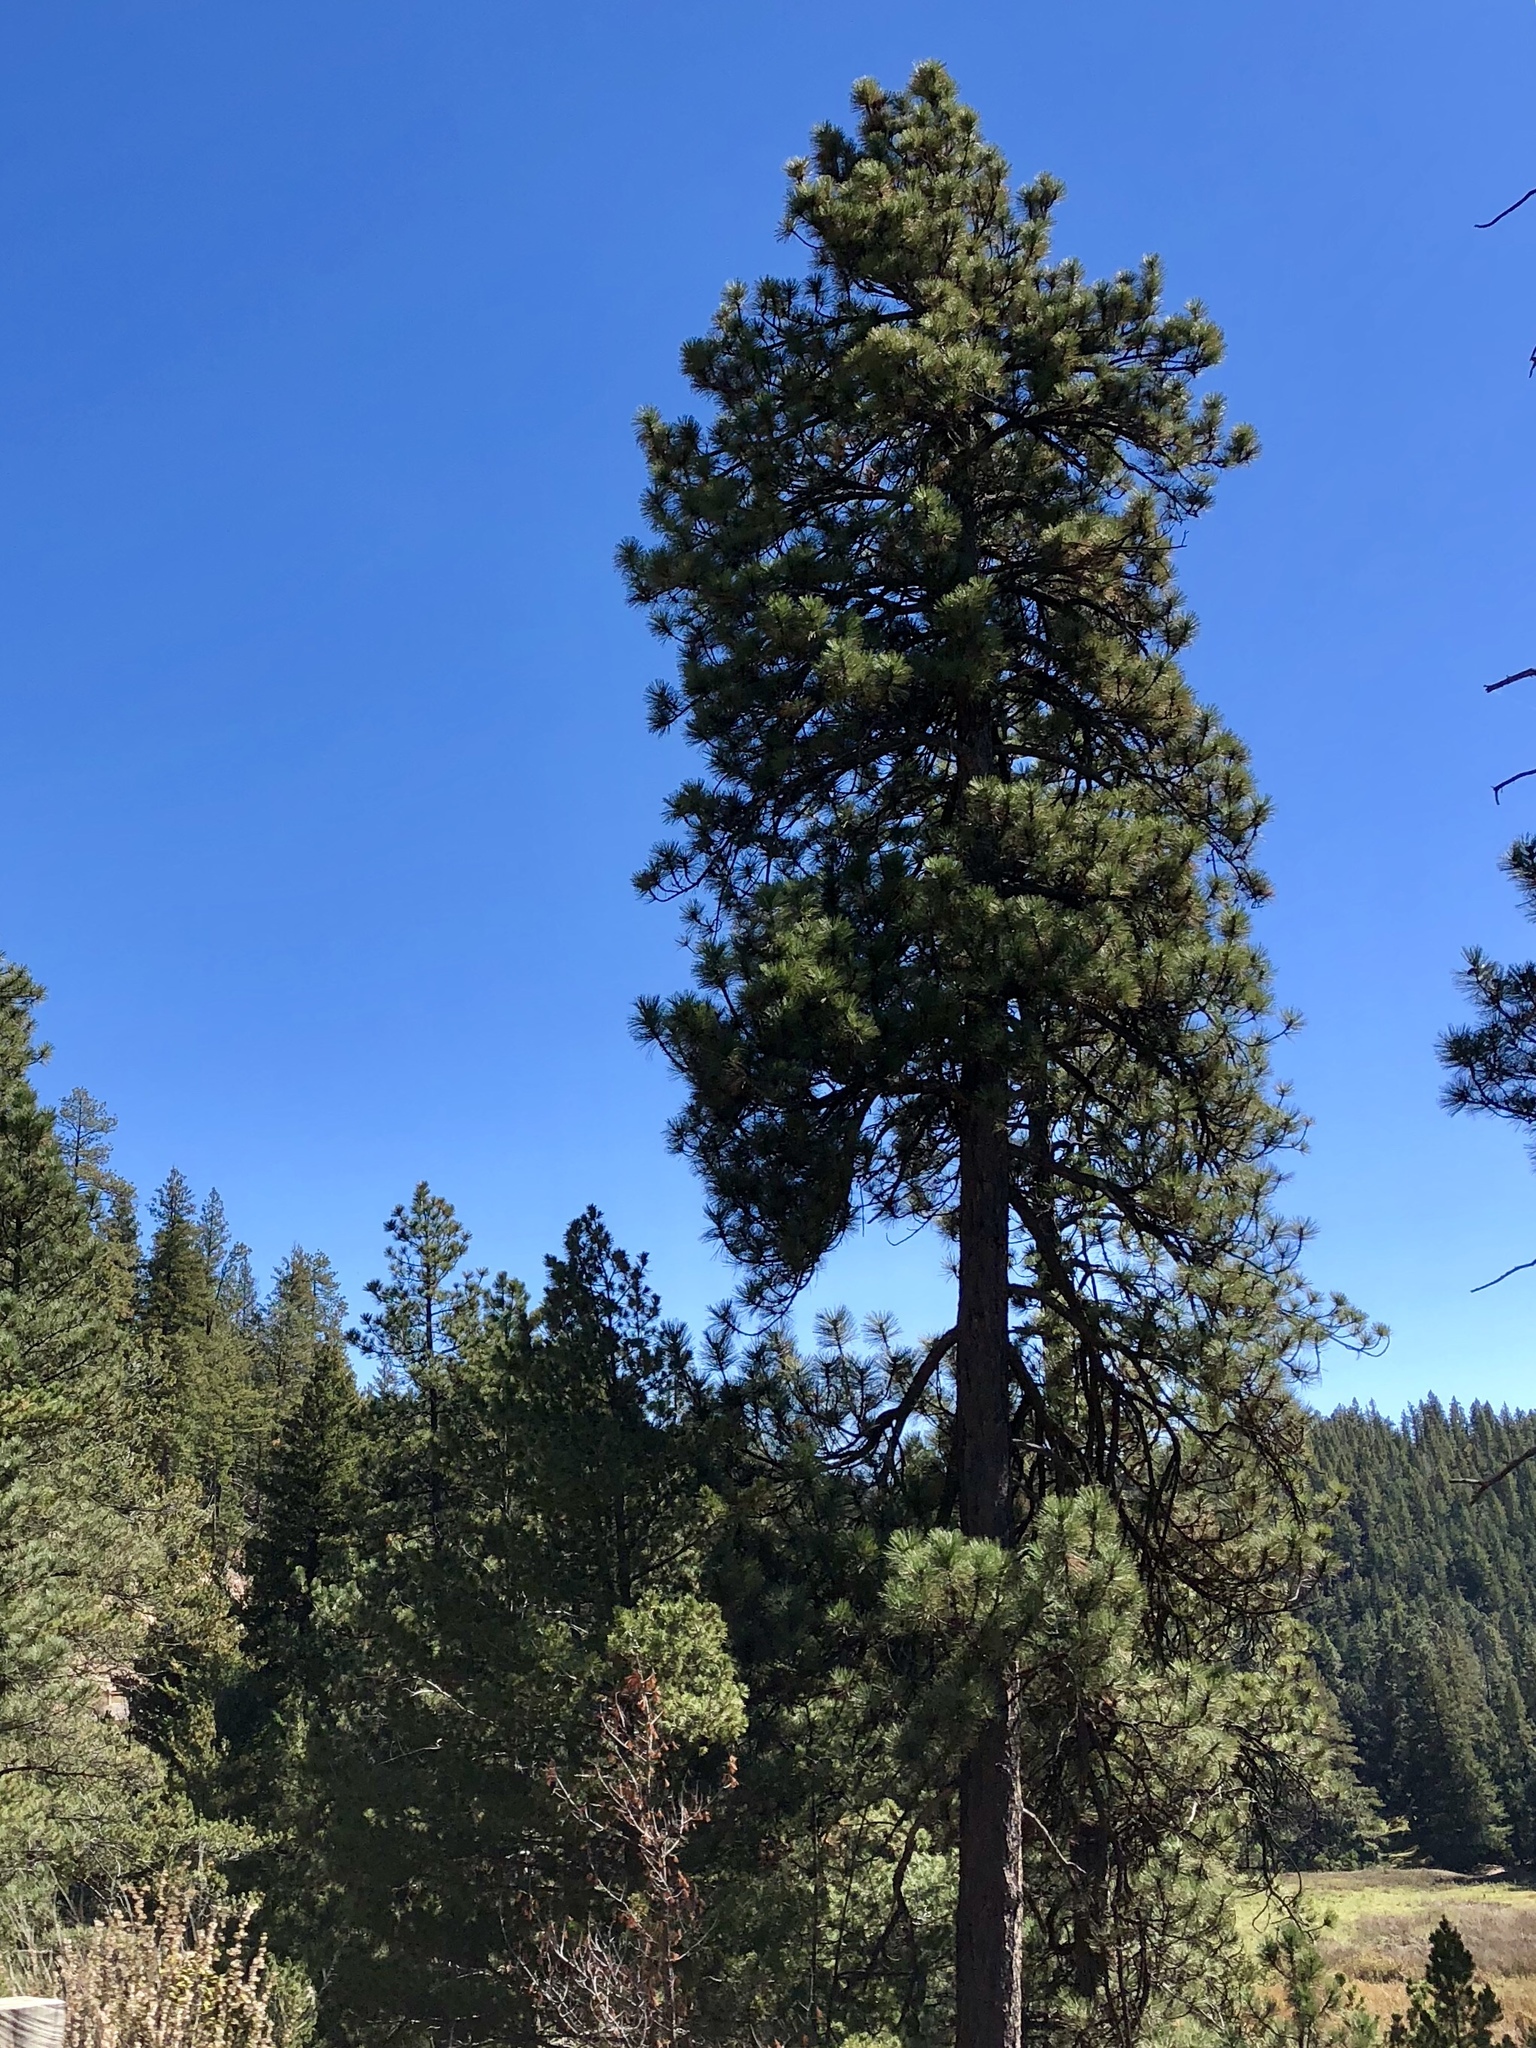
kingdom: Plantae
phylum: Tracheophyta
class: Pinopsida
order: Pinales
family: Pinaceae
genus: Pinus
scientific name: Pinus ponderosa
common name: Western yellow-pine
